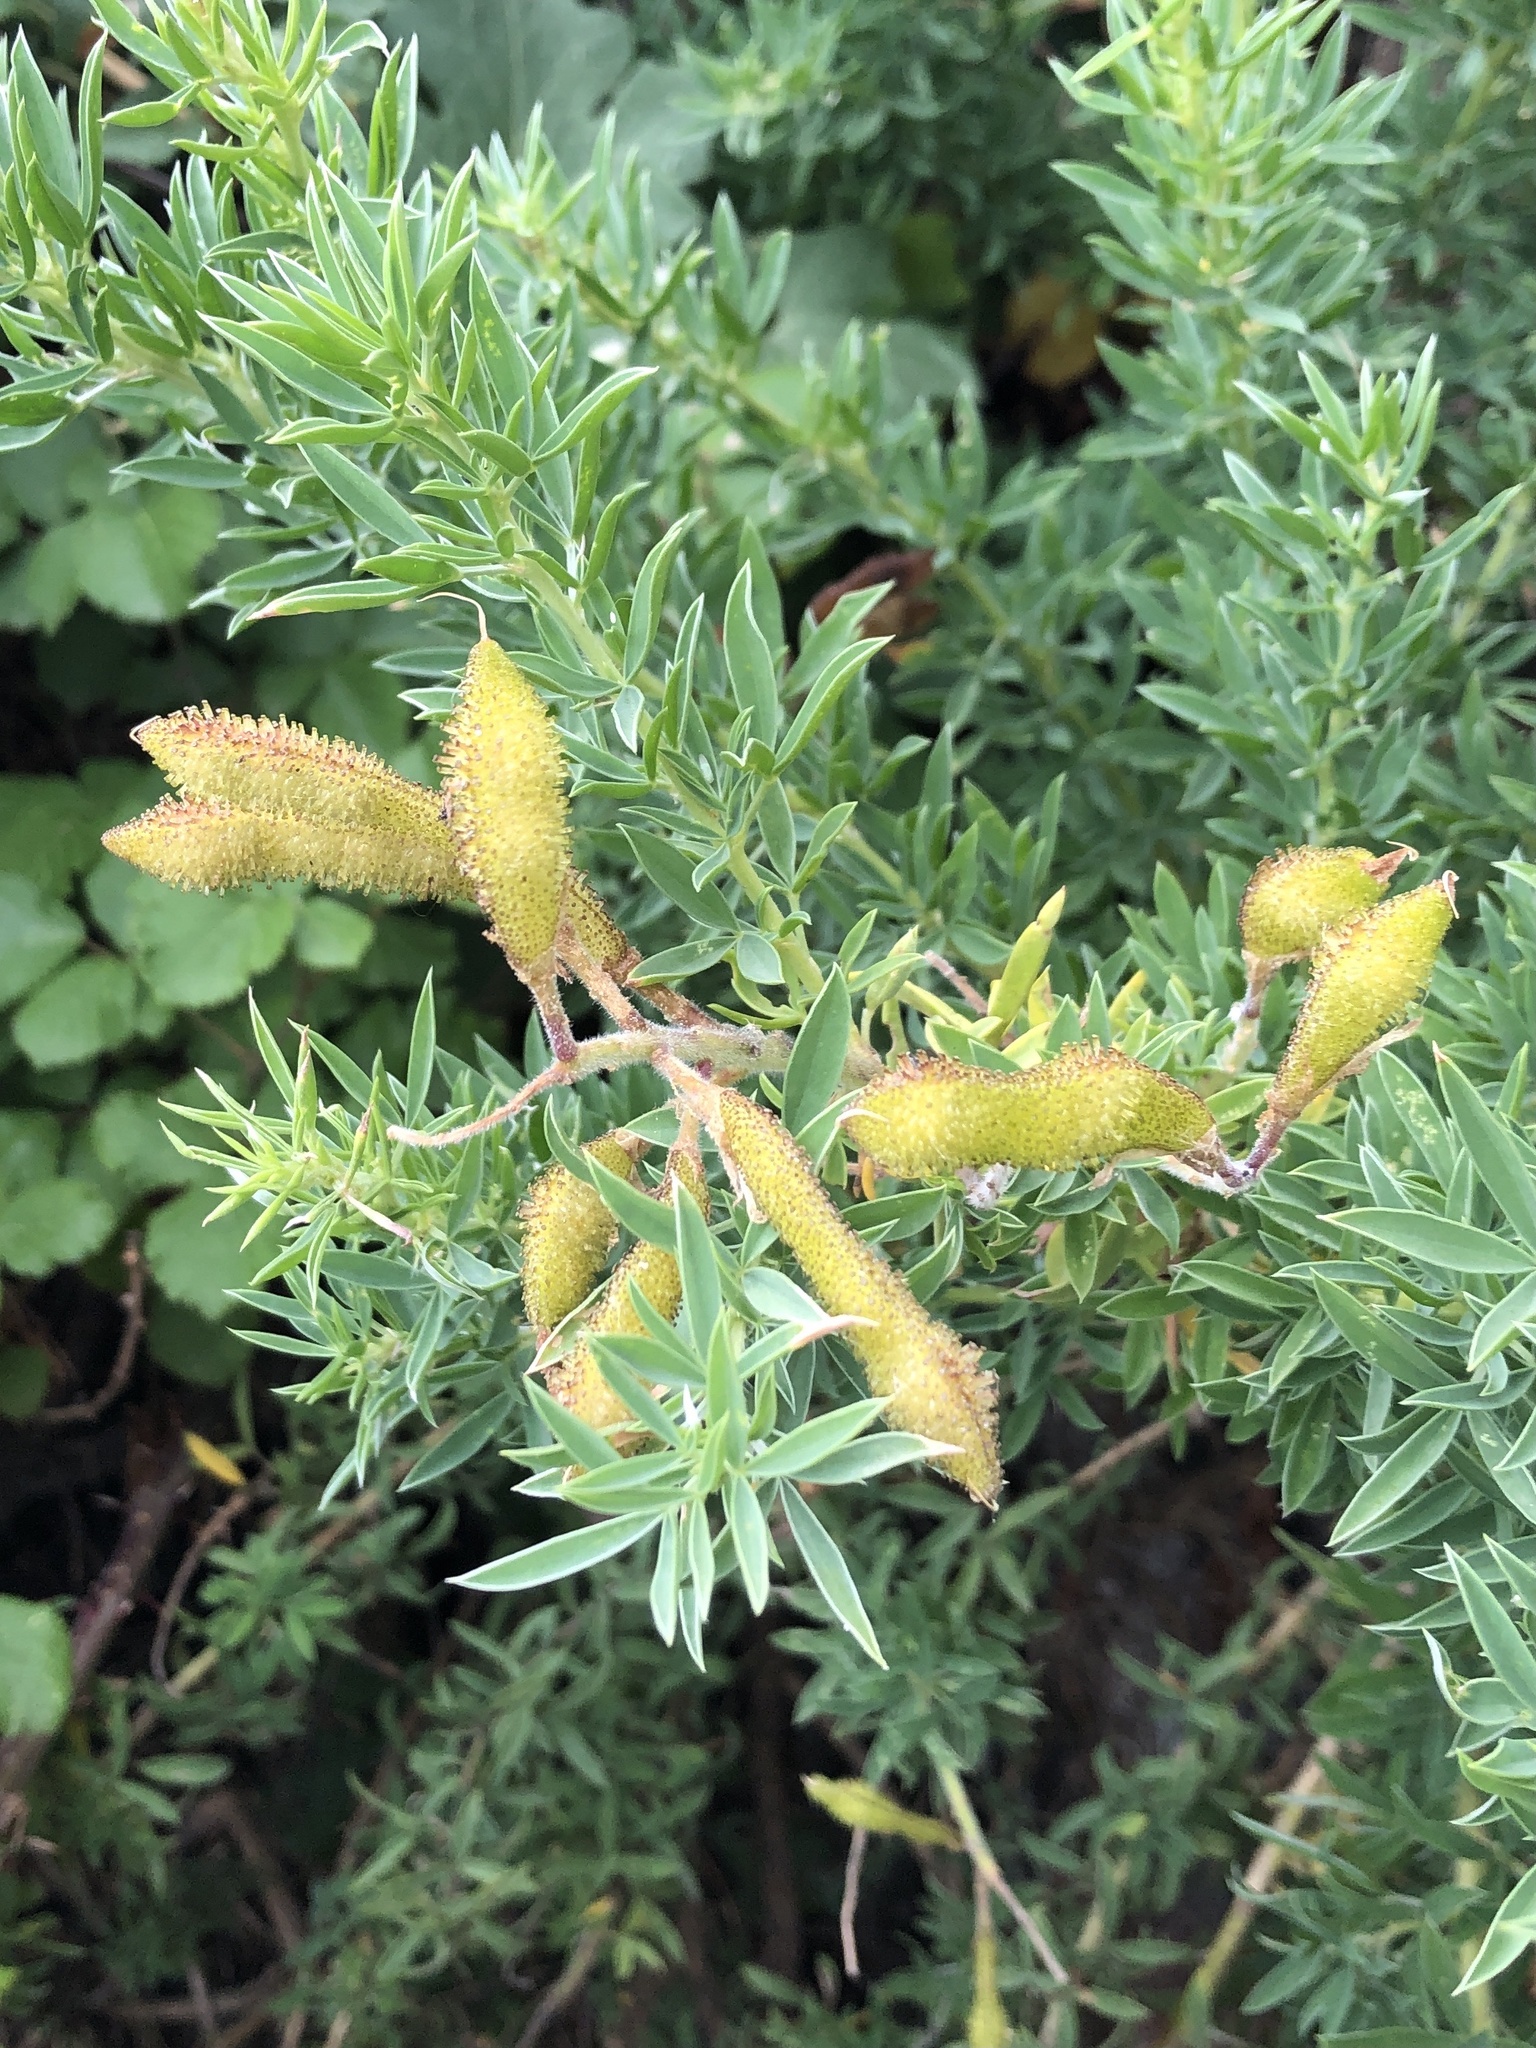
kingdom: Plantae
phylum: Tracheophyta
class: Magnoliopsida
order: Fabales
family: Fabaceae
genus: Adenocarpus
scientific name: Adenocarpus hispanicus
